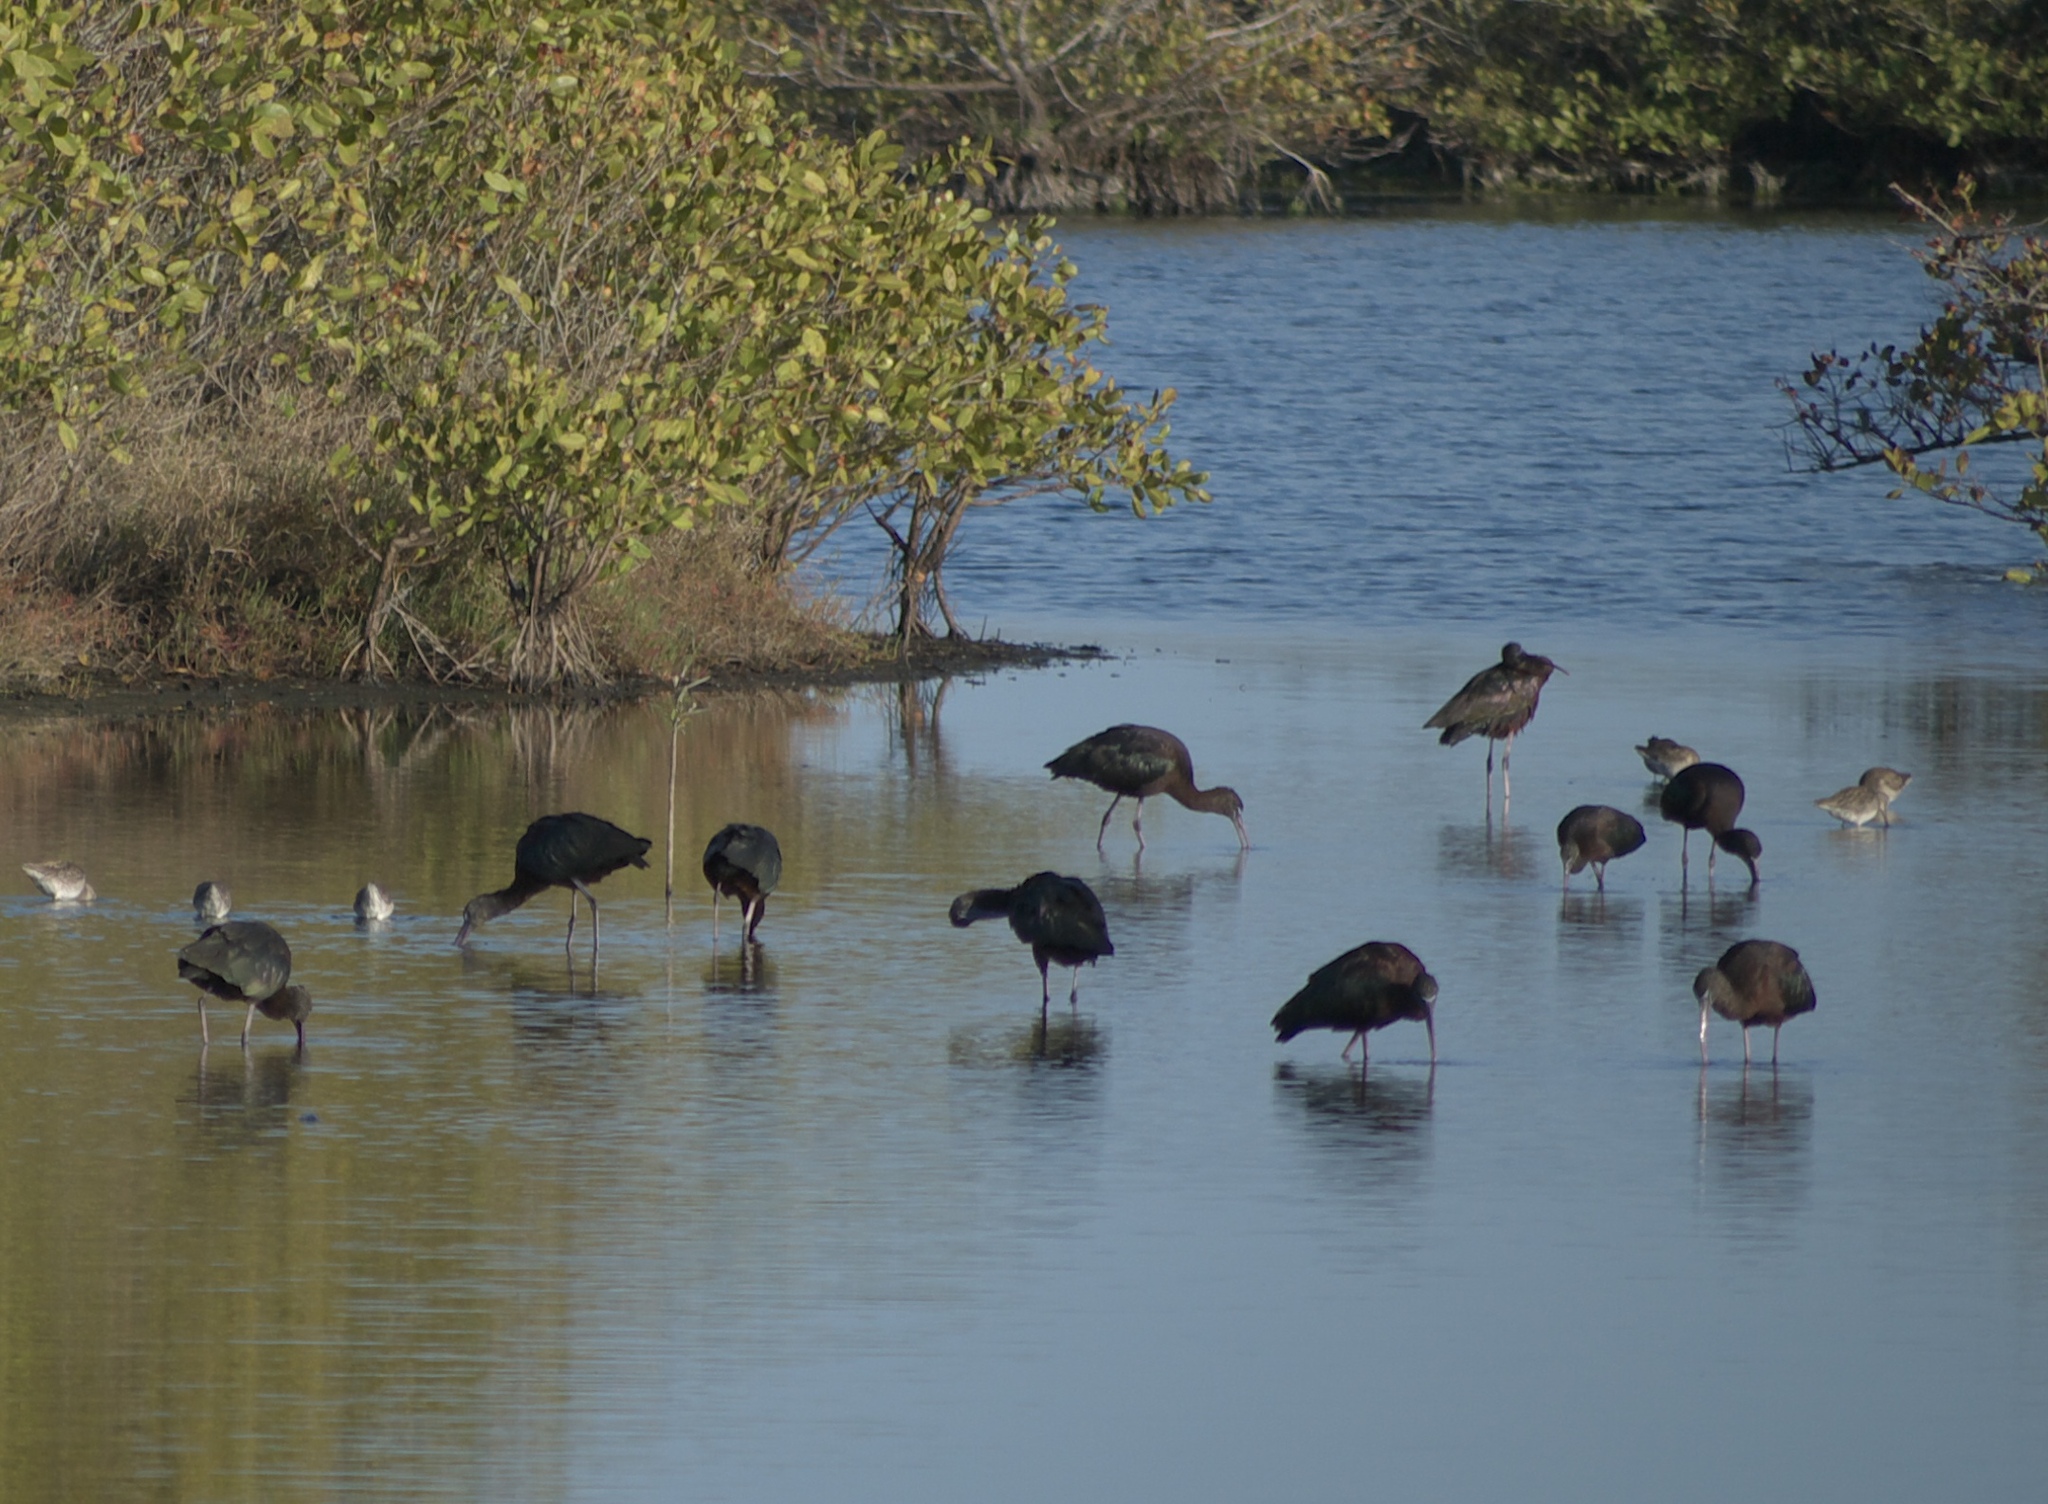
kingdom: Animalia
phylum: Chordata
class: Aves
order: Pelecaniformes
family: Threskiornithidae
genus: Plegadis
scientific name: Plegadis falcinellus
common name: Glossy ibis
